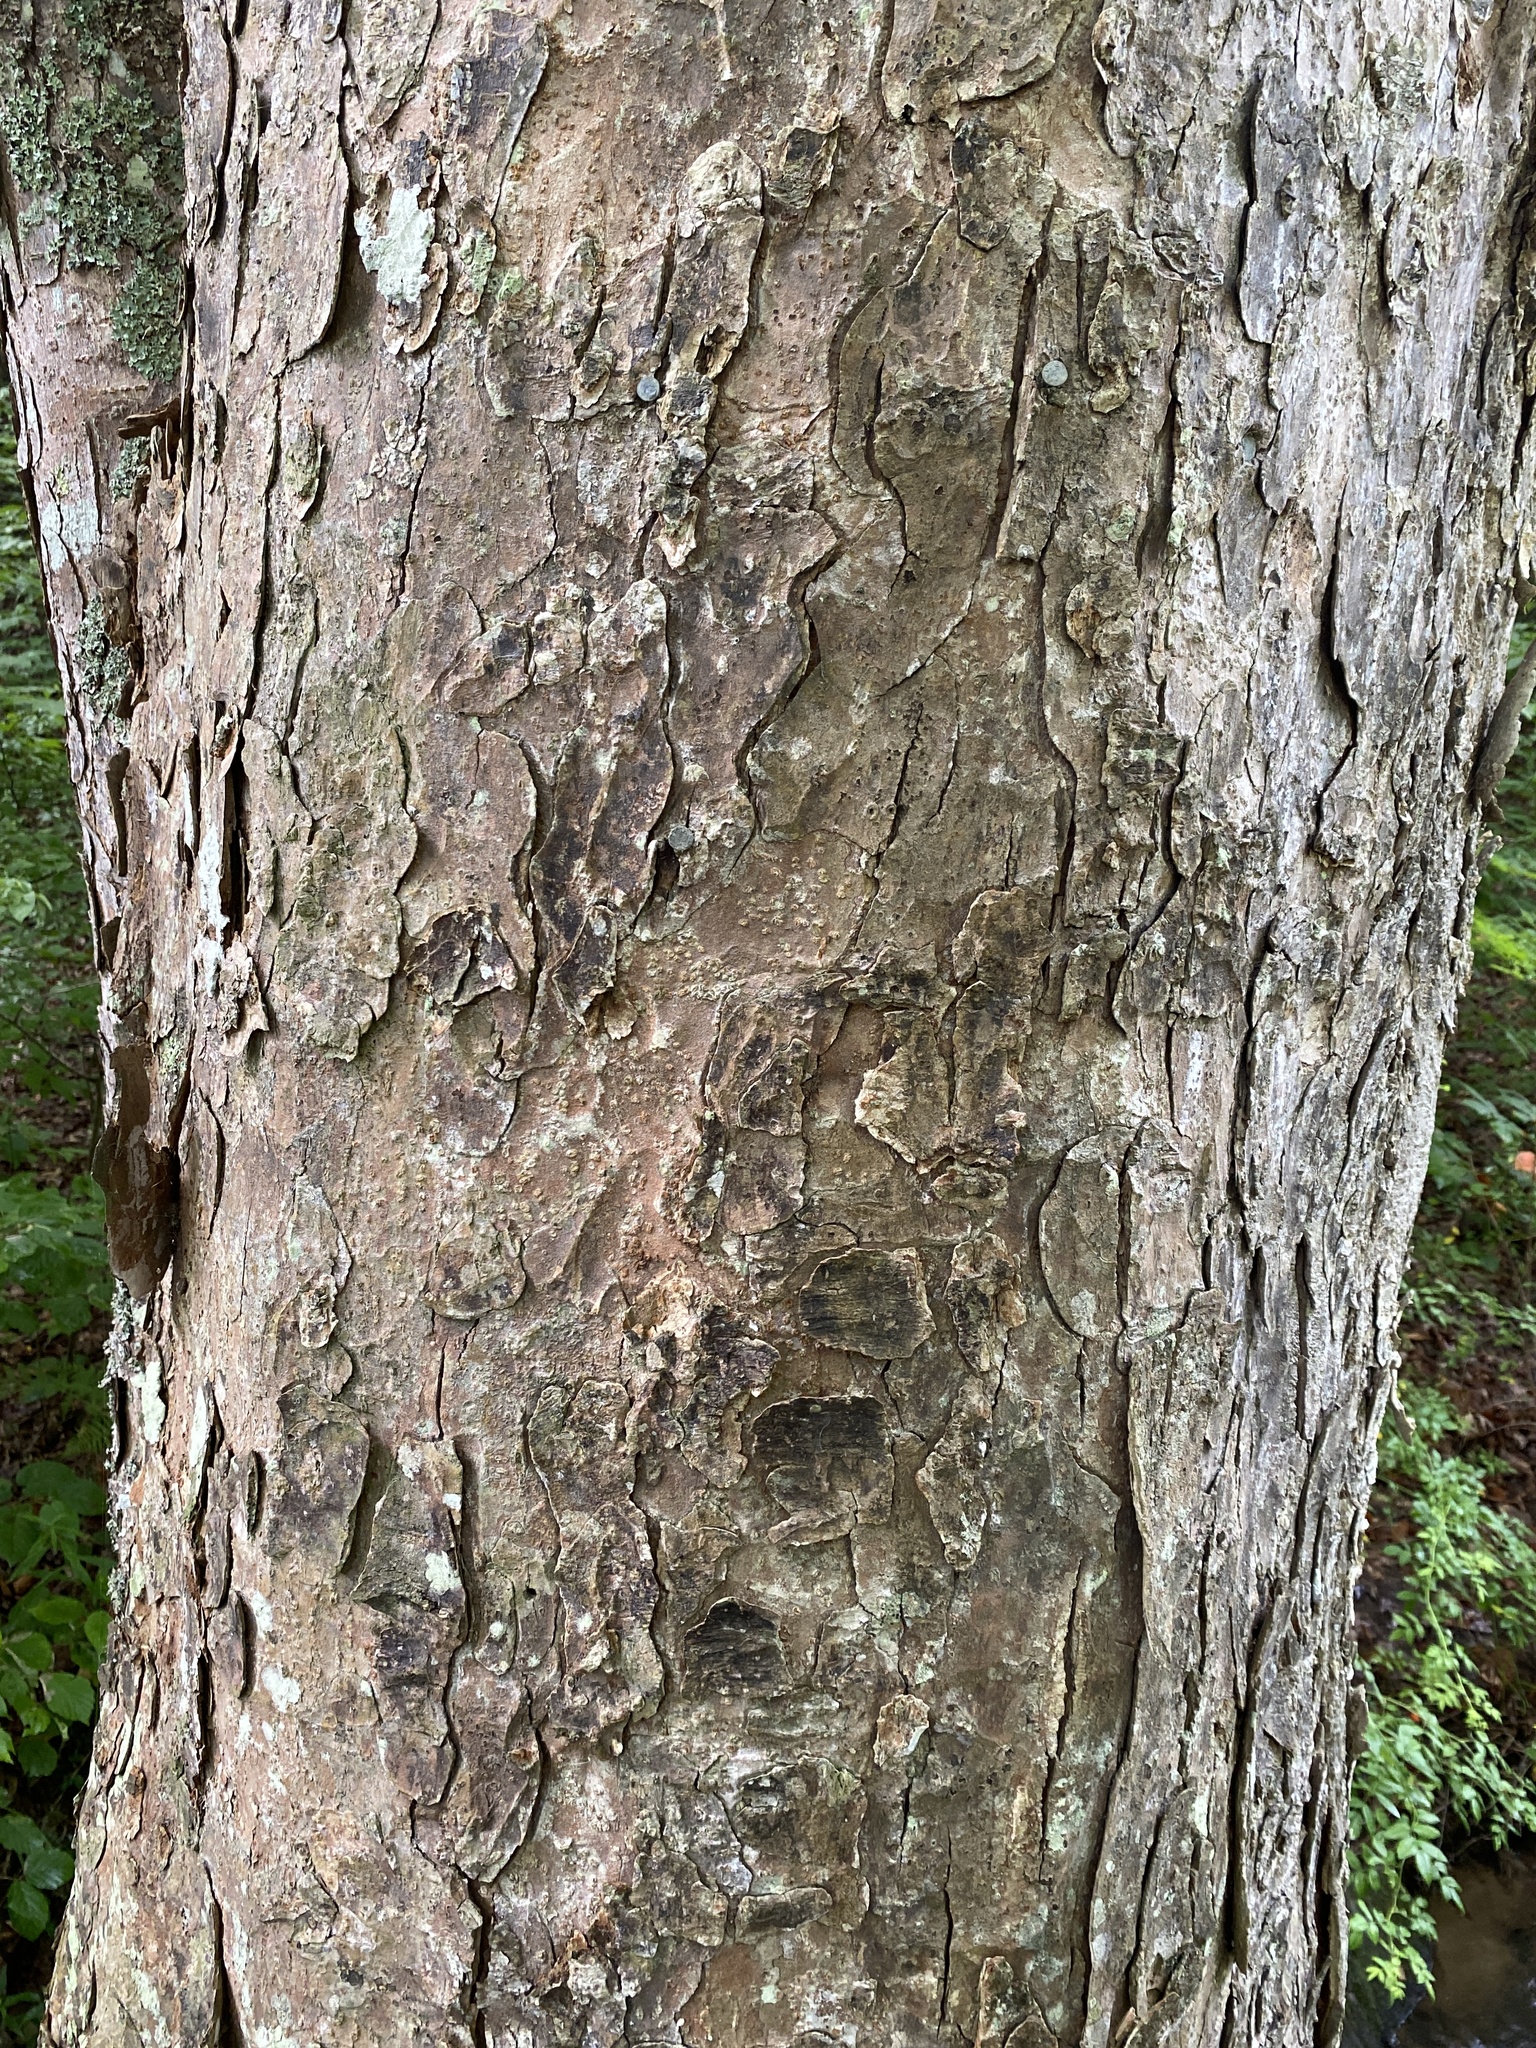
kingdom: Plantae
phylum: Tracheophyta
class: Magnoliopsida
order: Sapindales
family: Sapindaceae
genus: Aesculus
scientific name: Aesculus flava
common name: Yellow buckeye
